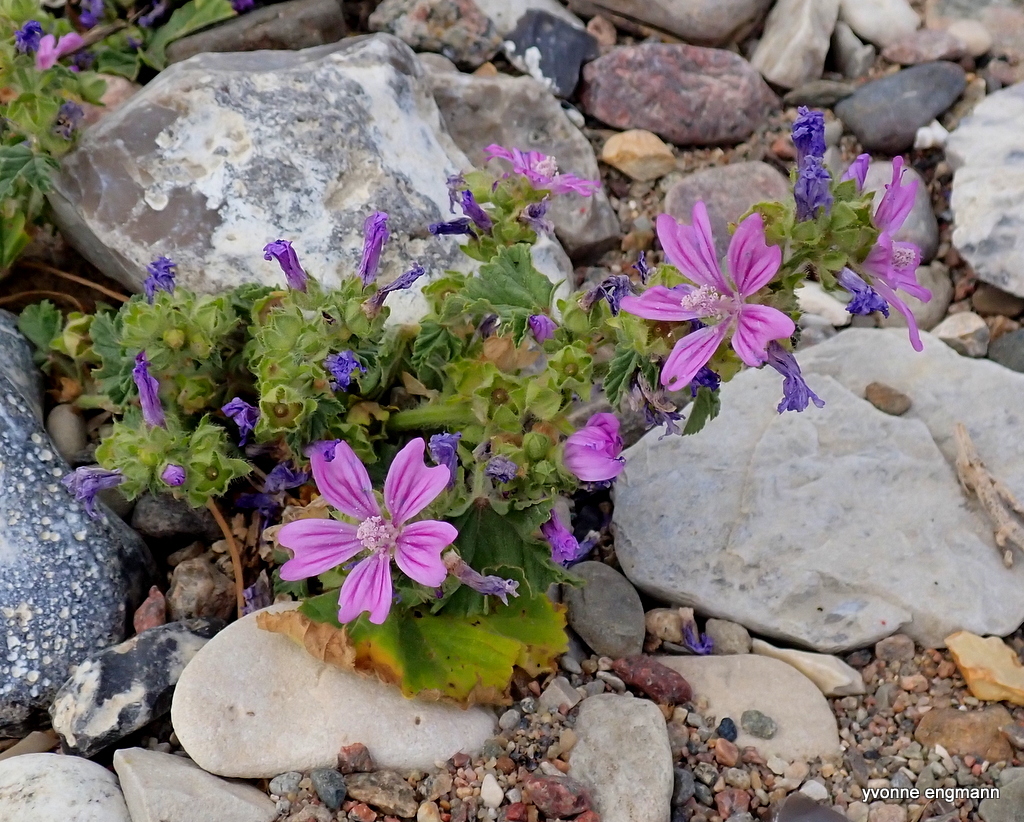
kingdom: Plantae
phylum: Tracheophyta
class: Magnoliopsida
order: Malvales
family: Malvaceae
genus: Malva
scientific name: Malva sylvestris
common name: Common mallow
